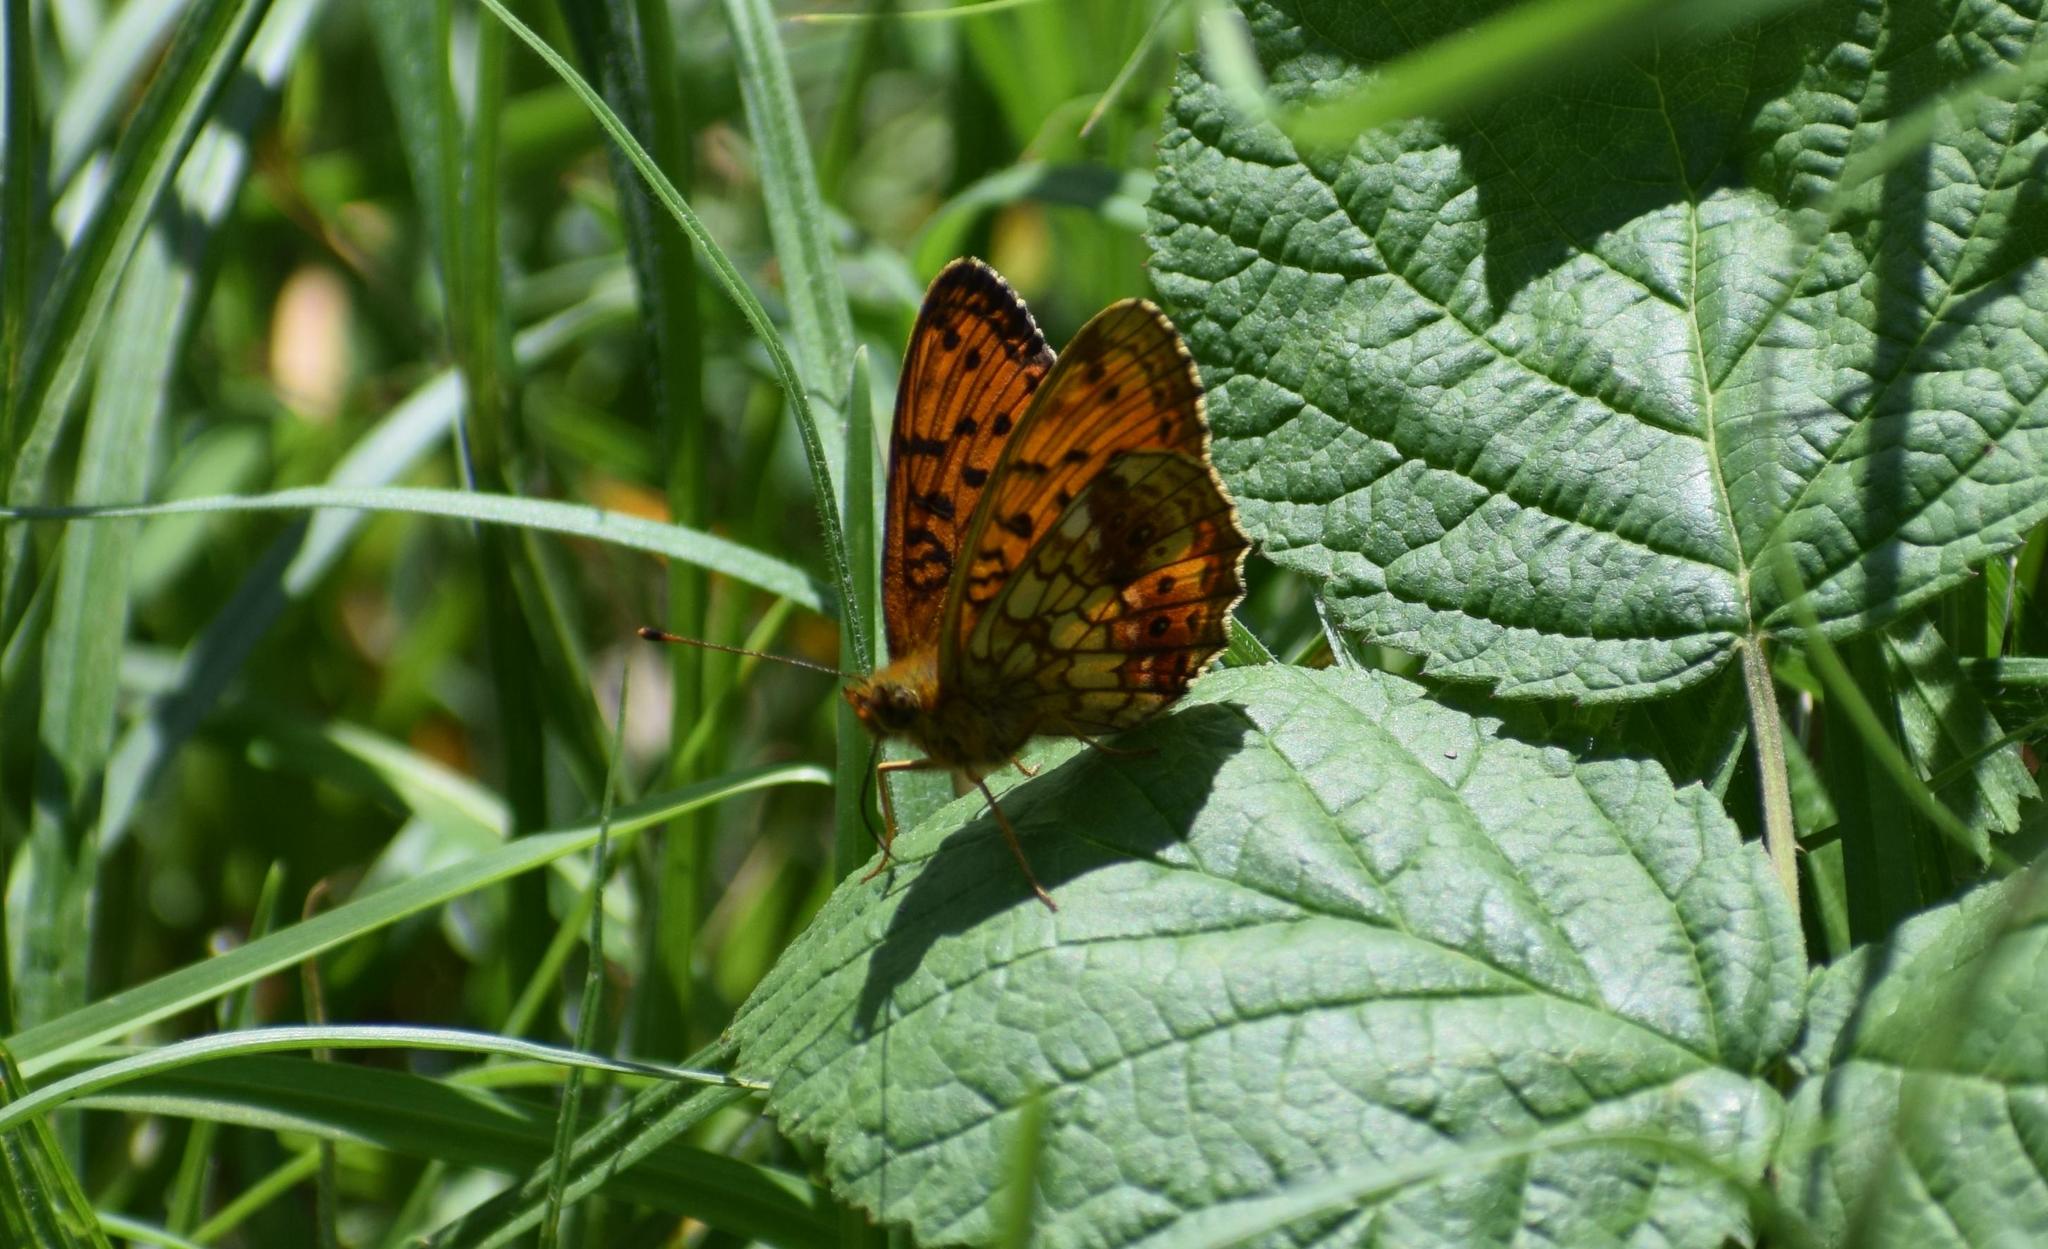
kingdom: Animalia
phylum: Arthropoda
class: Insecta
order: Lepidoptera
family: Nymphalidae
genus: Brenthis
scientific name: Brenthis ino
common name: Lesser marbled fritillary
